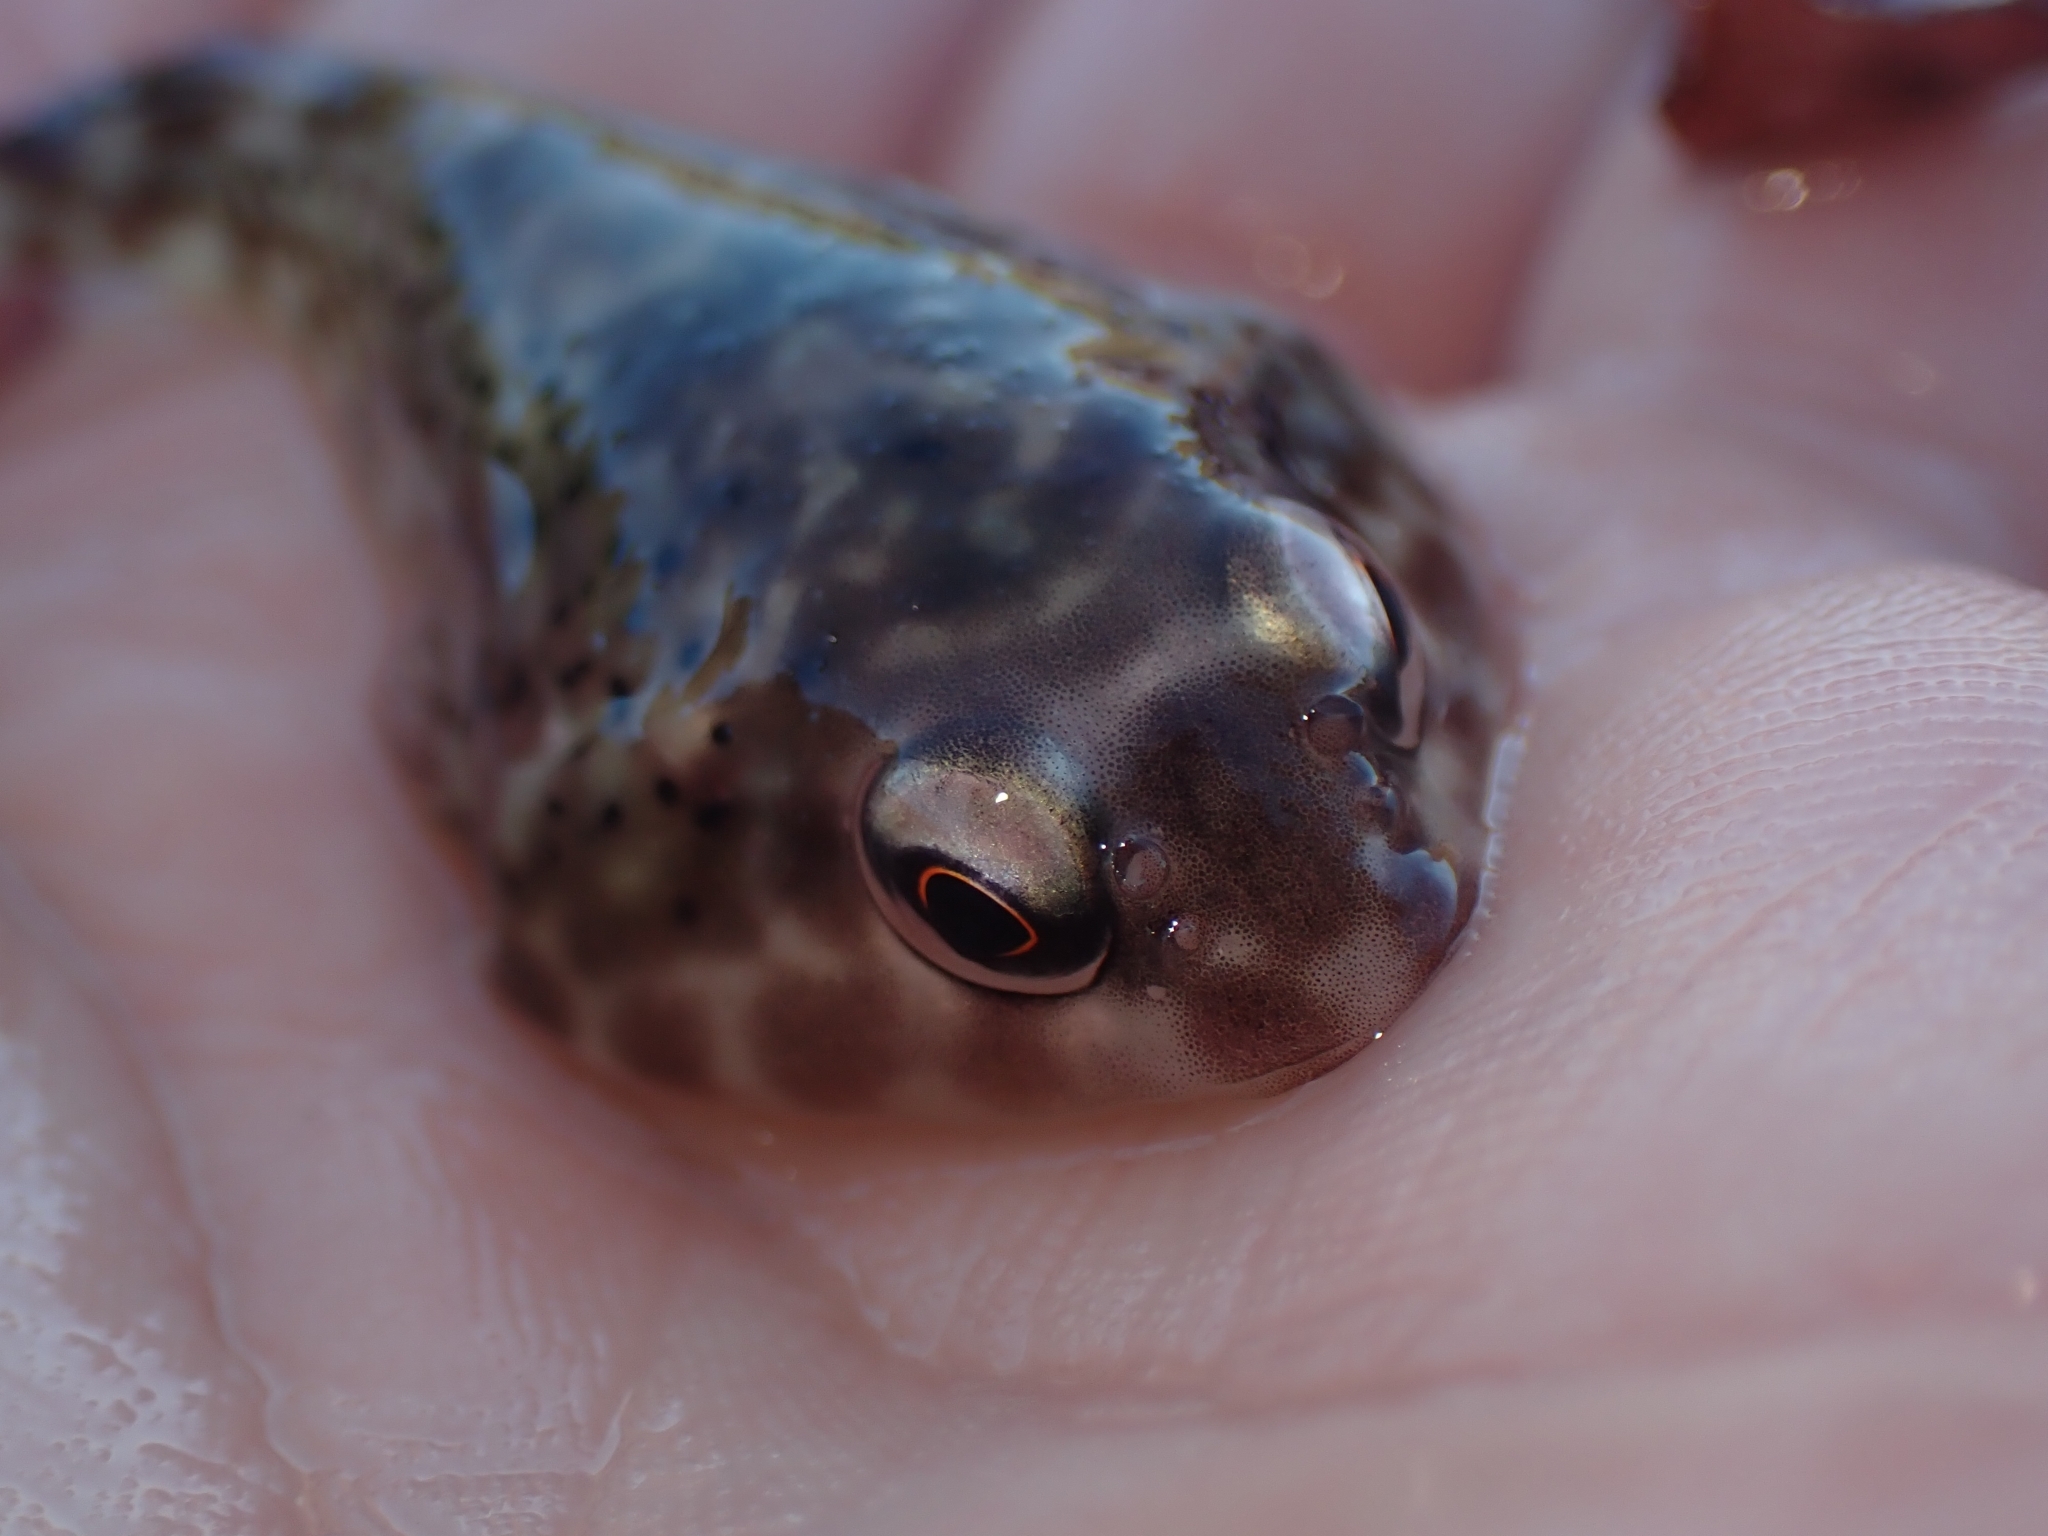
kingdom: Animalia
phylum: Chordata
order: Gobiesociformes
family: Gobiesocidae
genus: Diplocrepis
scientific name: Diplocrepis puniceus
